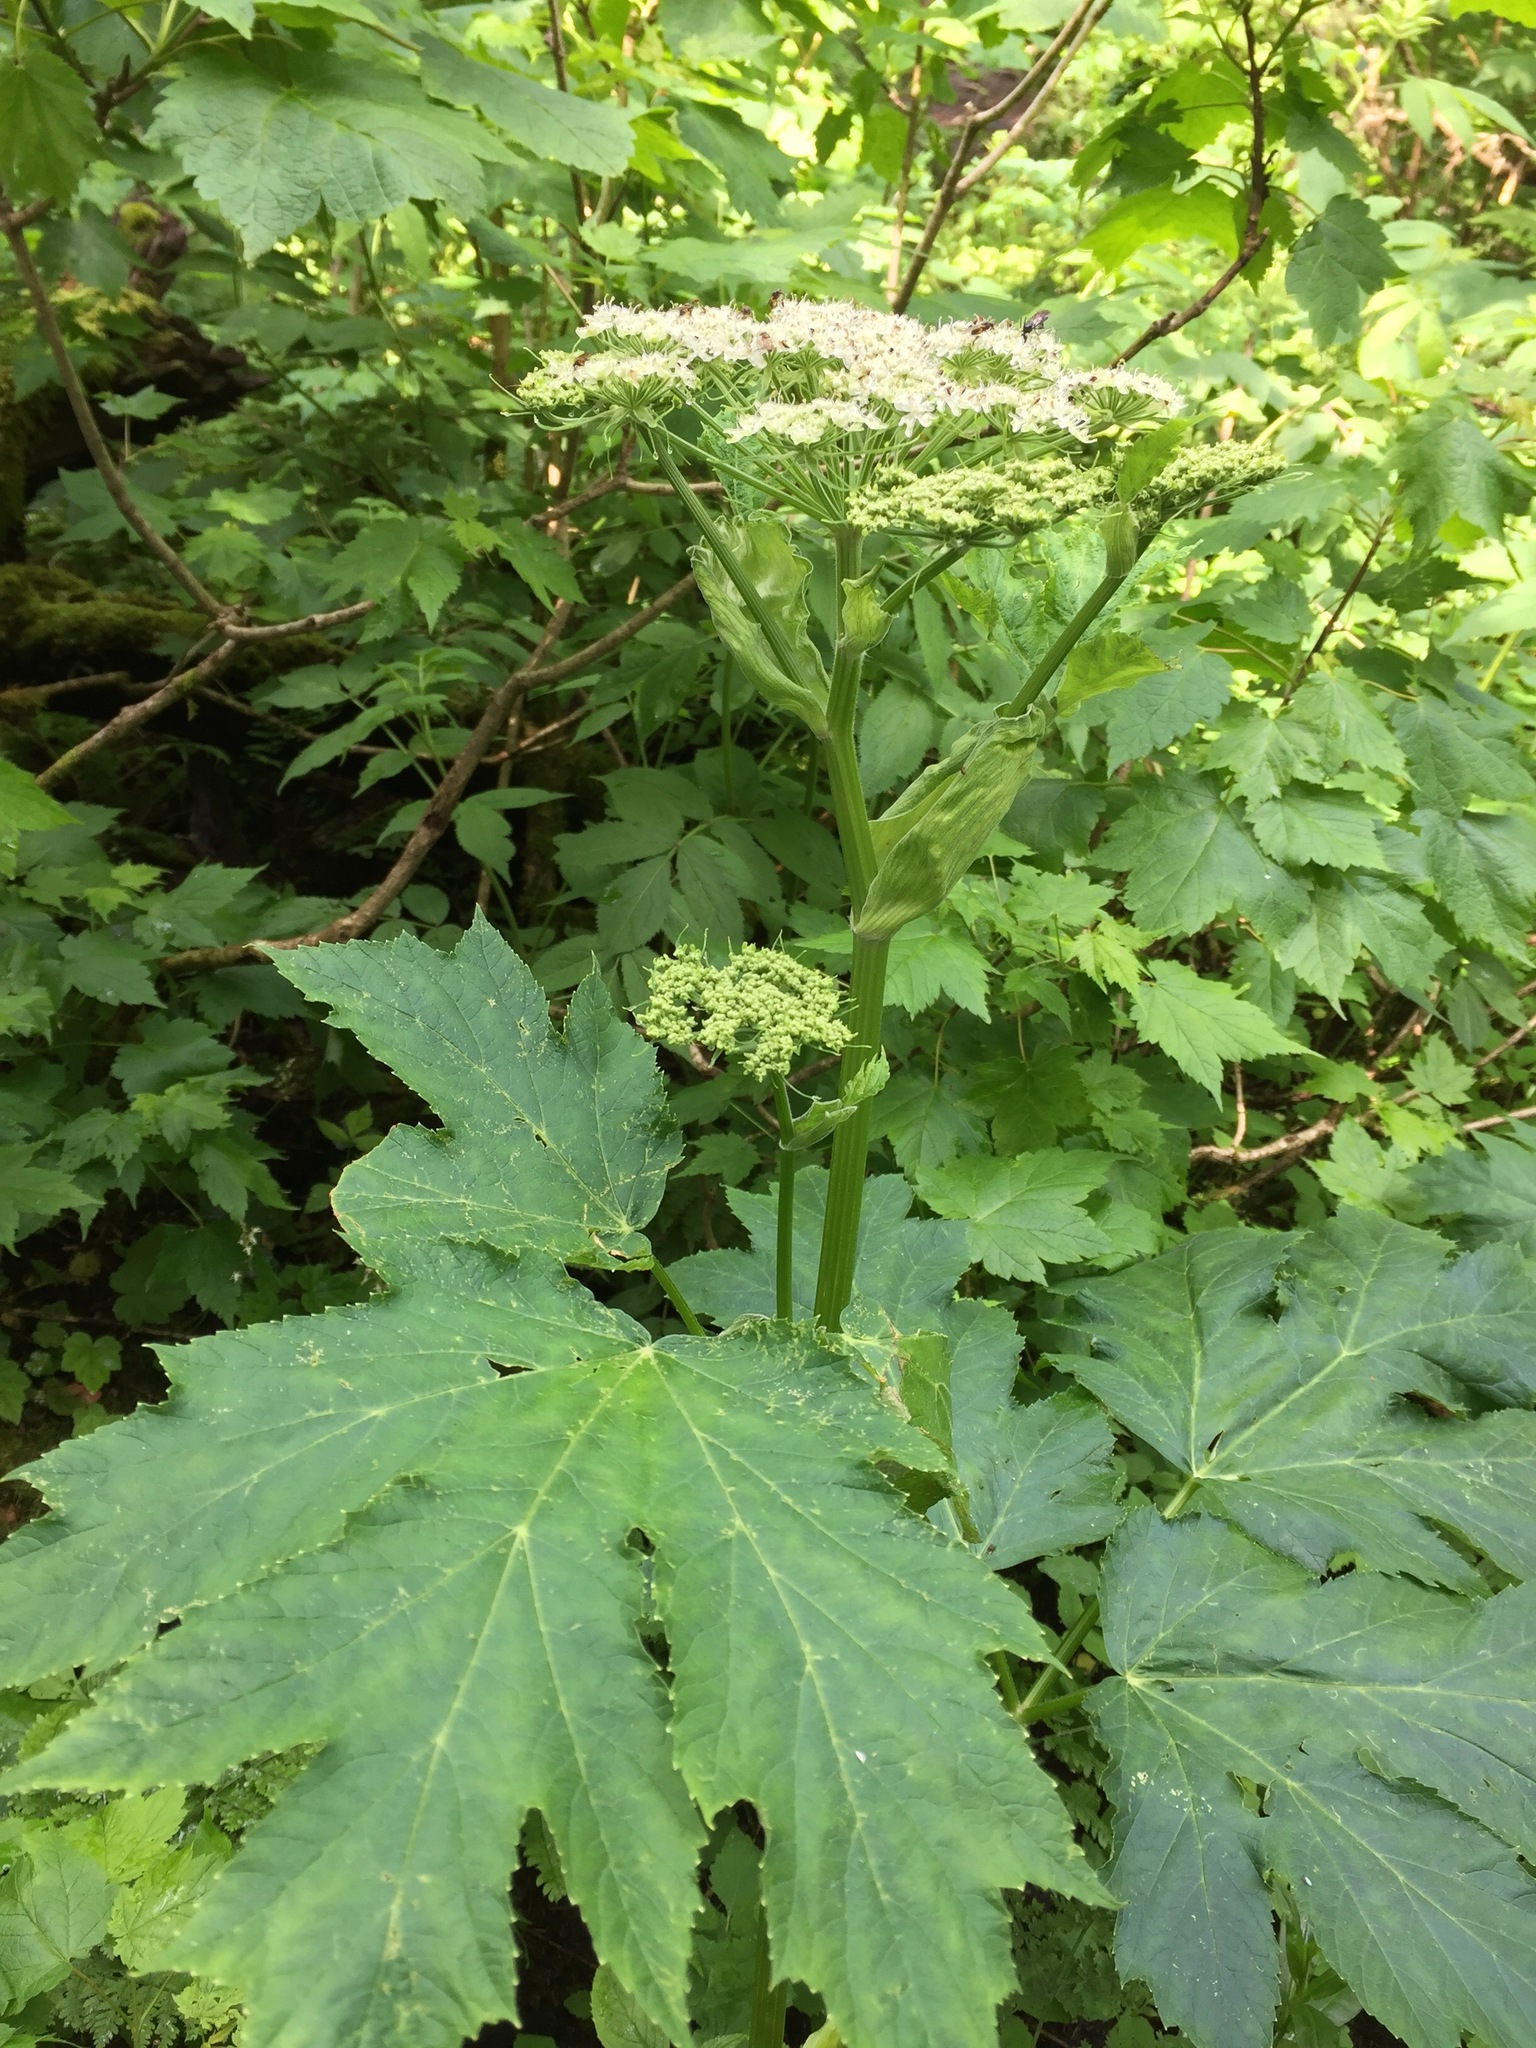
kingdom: Plantae
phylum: Tracheophyta
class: Magnoliopsida
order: Apiales
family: Apiaceae
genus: Heracleum
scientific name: Heracleum maximum
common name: American cow parsnip
